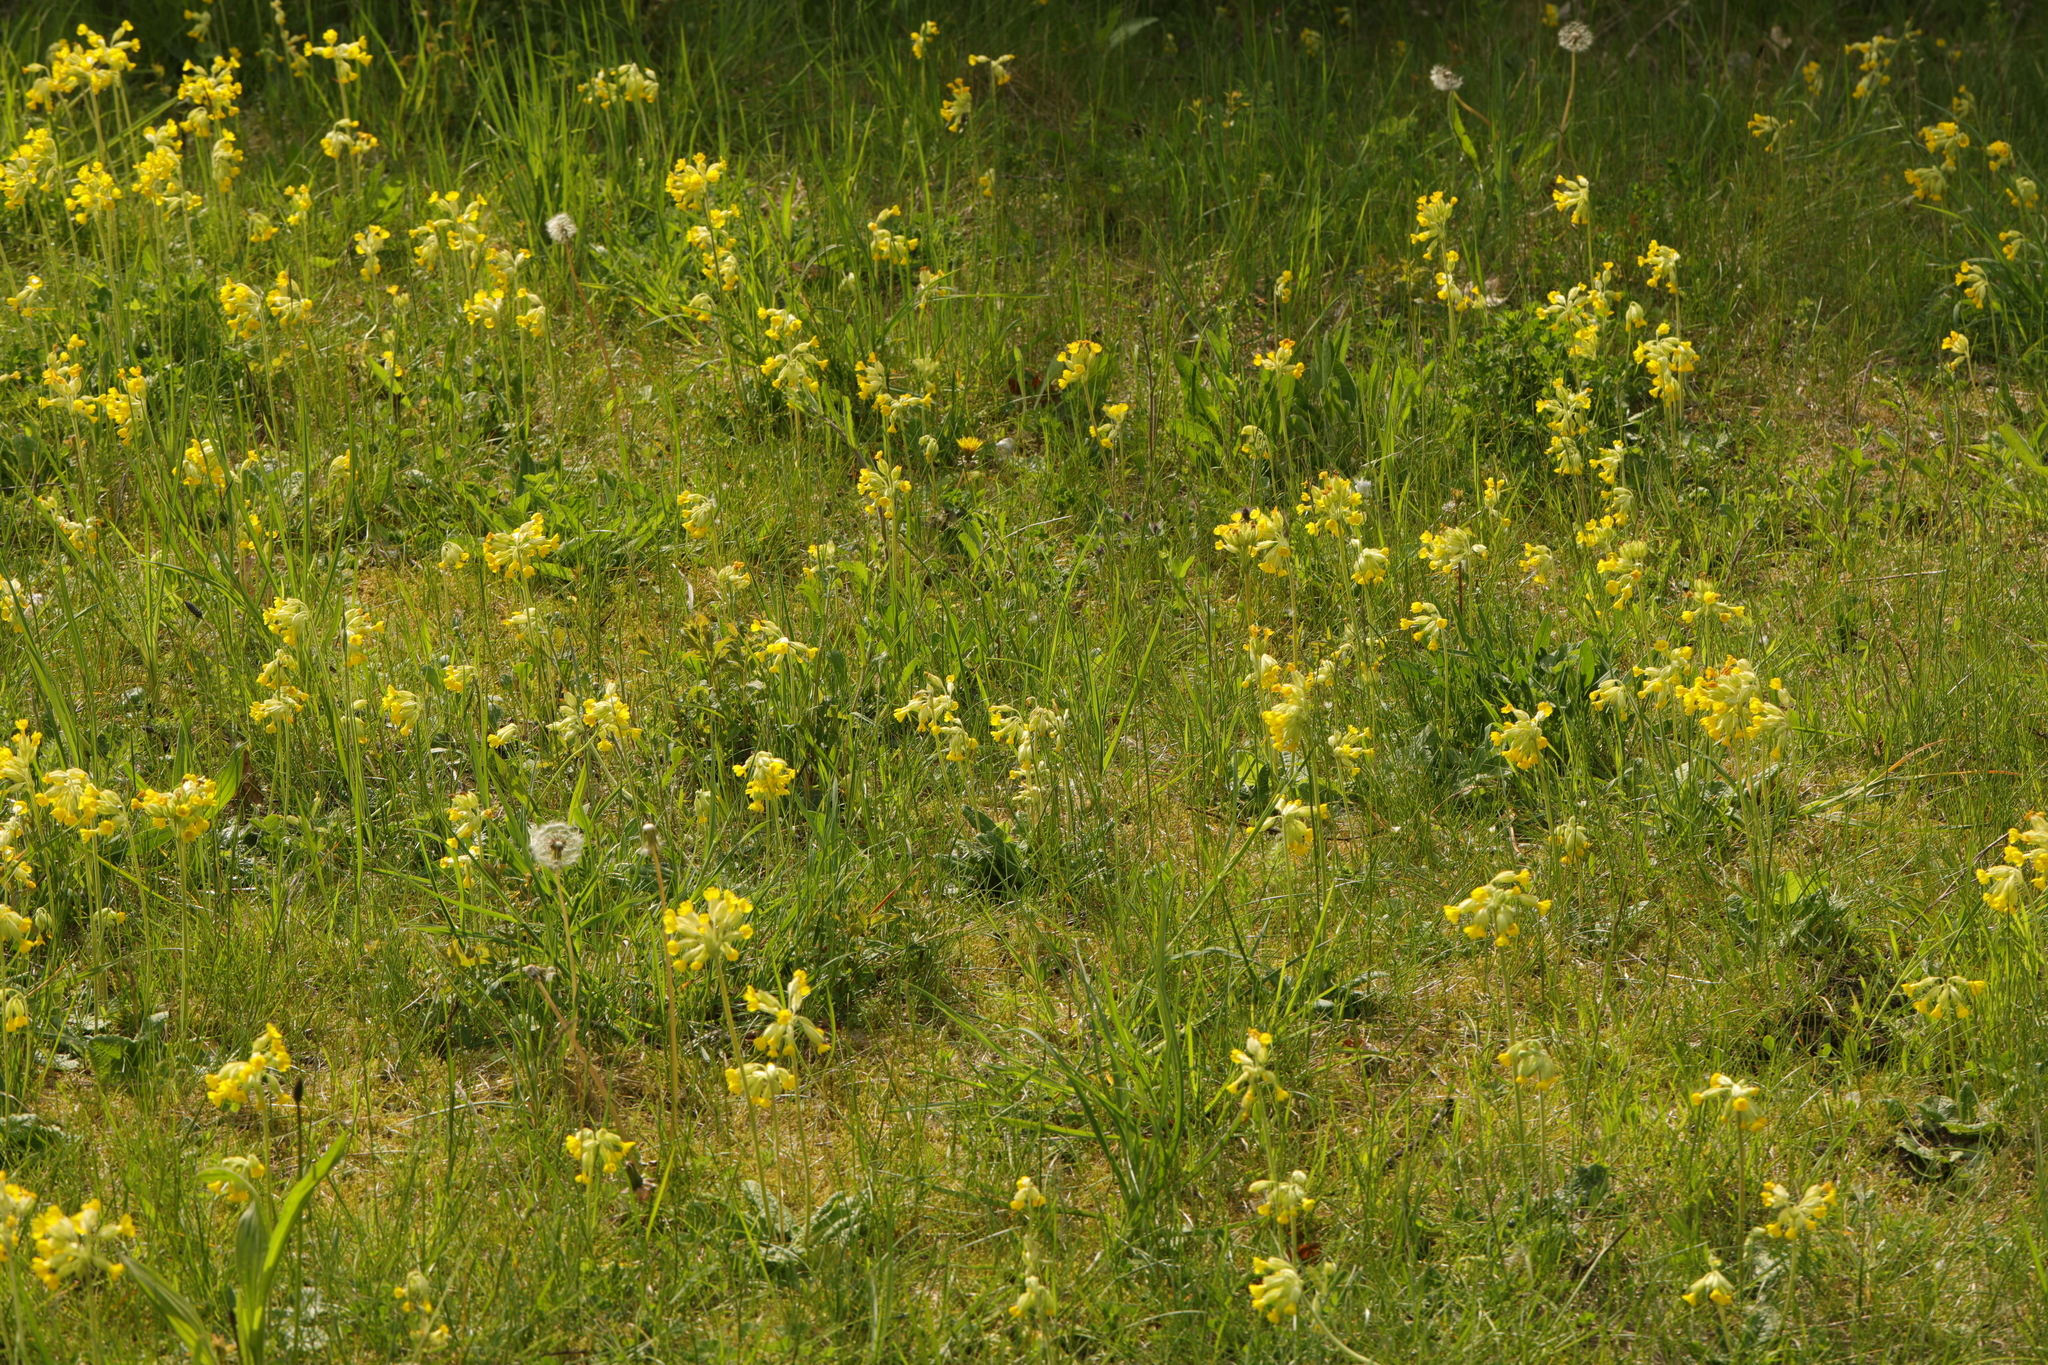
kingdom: Plantae
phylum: Tracheophyta
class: Magnoliopsida
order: Ericales
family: Primulaceae
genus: Primula
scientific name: Primula veris
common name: Cowslip
